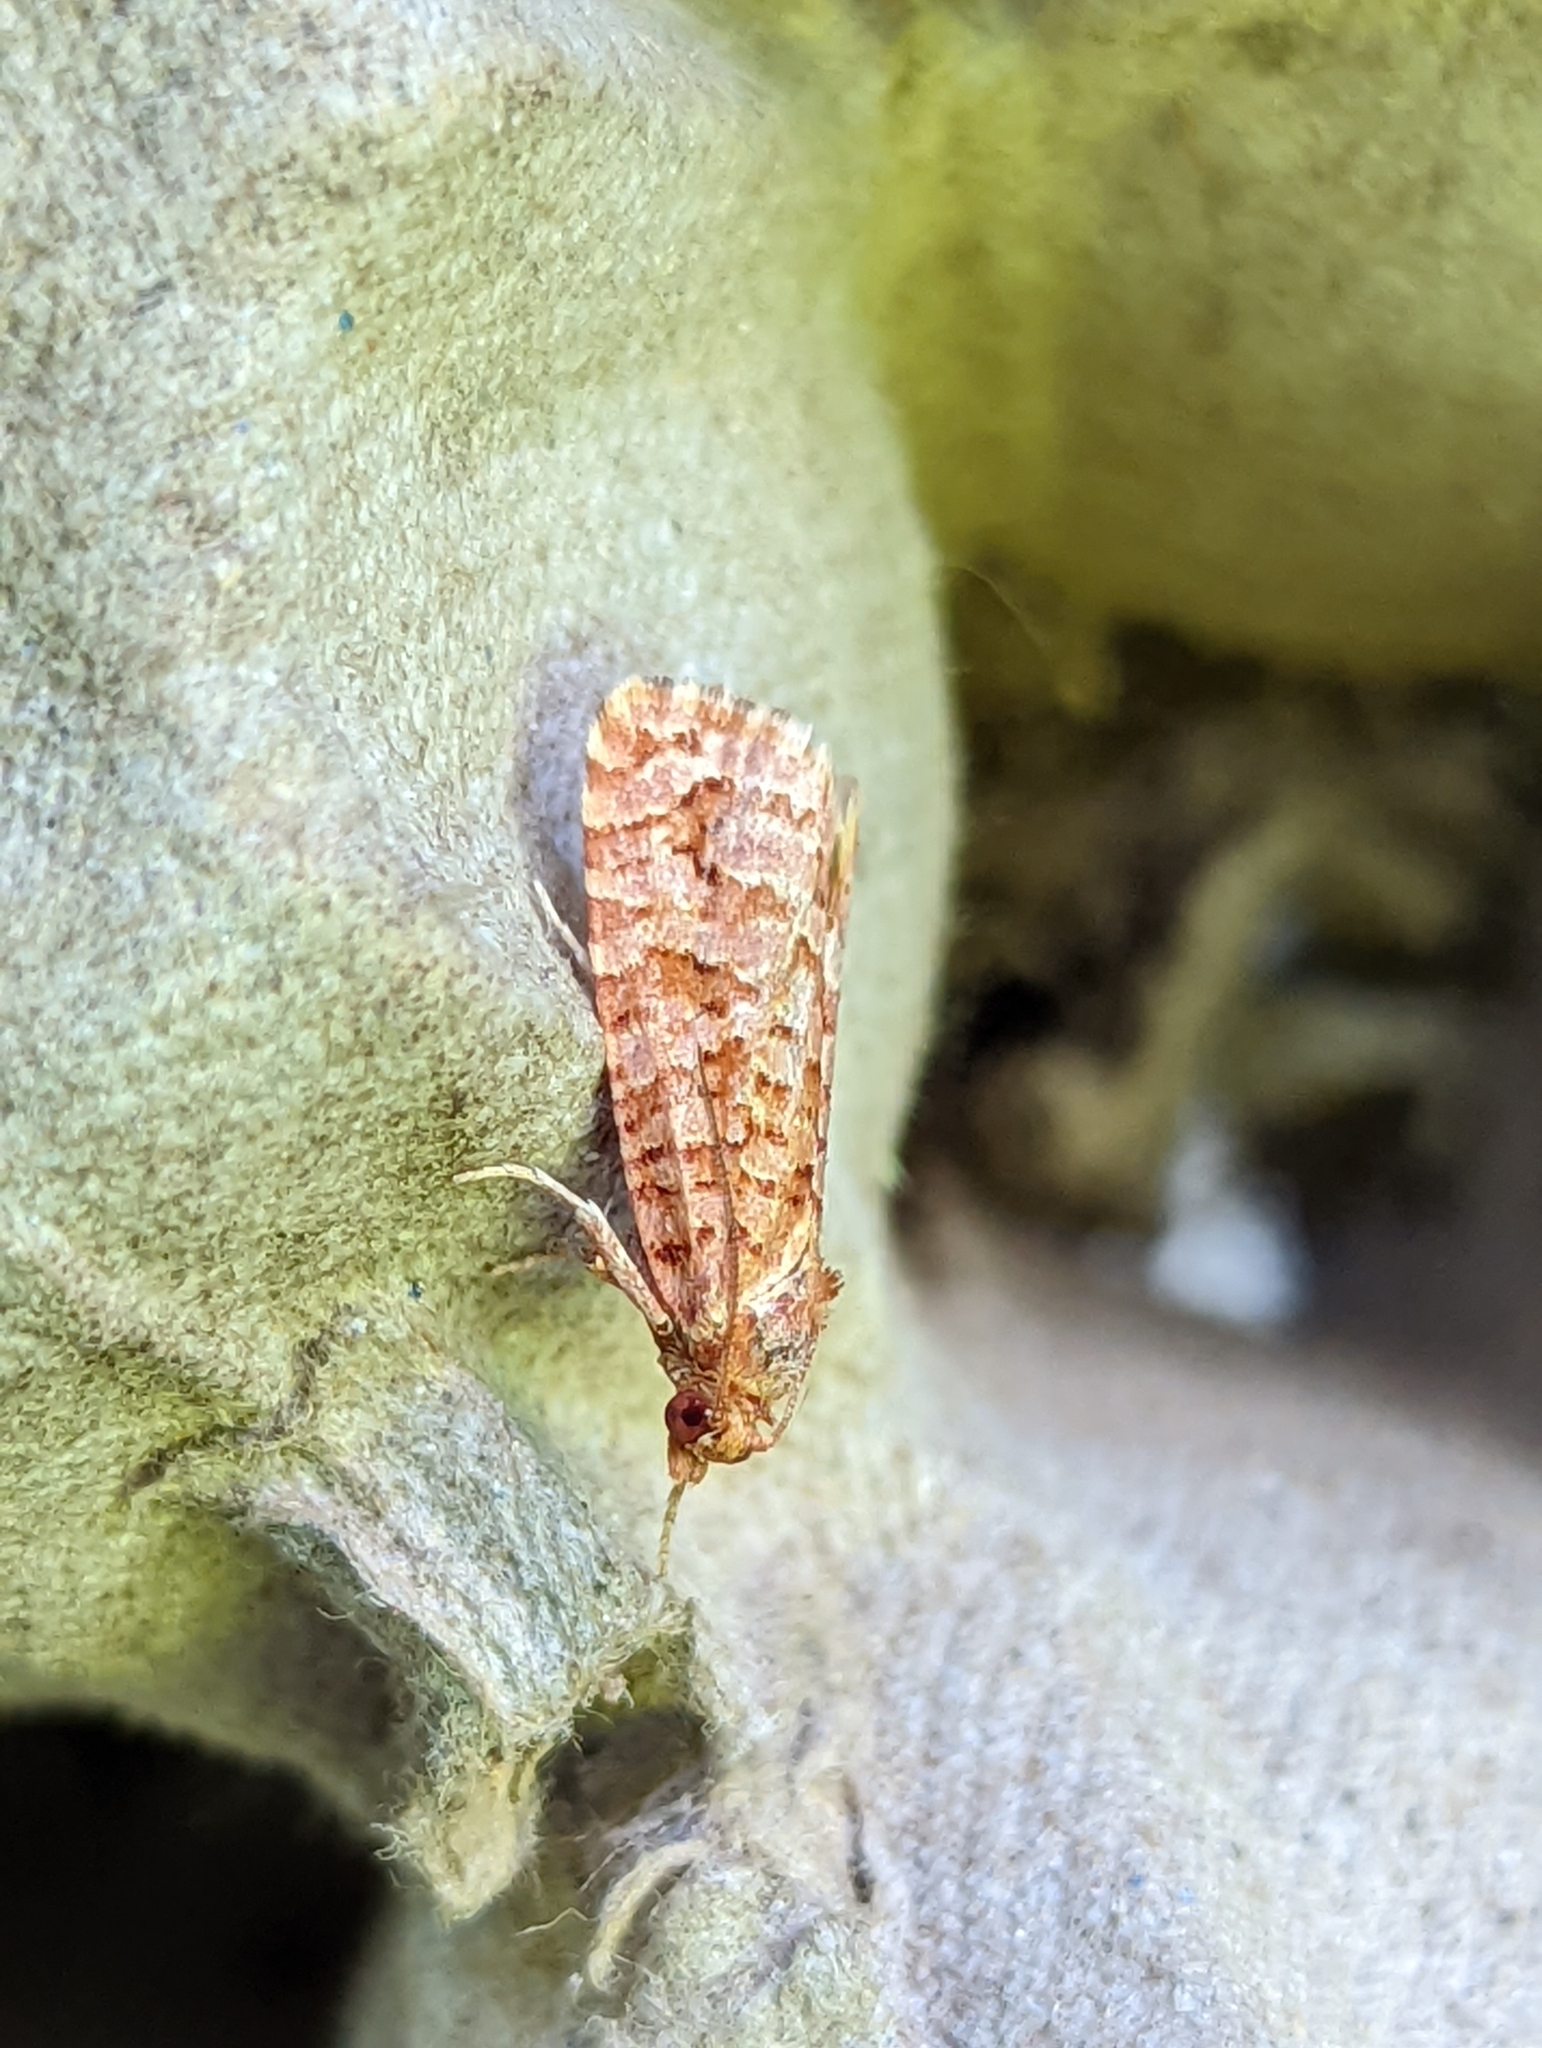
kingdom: Animalia
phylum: Arthropoda
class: Insecta
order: Lepidoptera
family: Tortricidae
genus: Lozotaeniodes
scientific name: Lozotaeniodes formosana
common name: Orange pine twist
